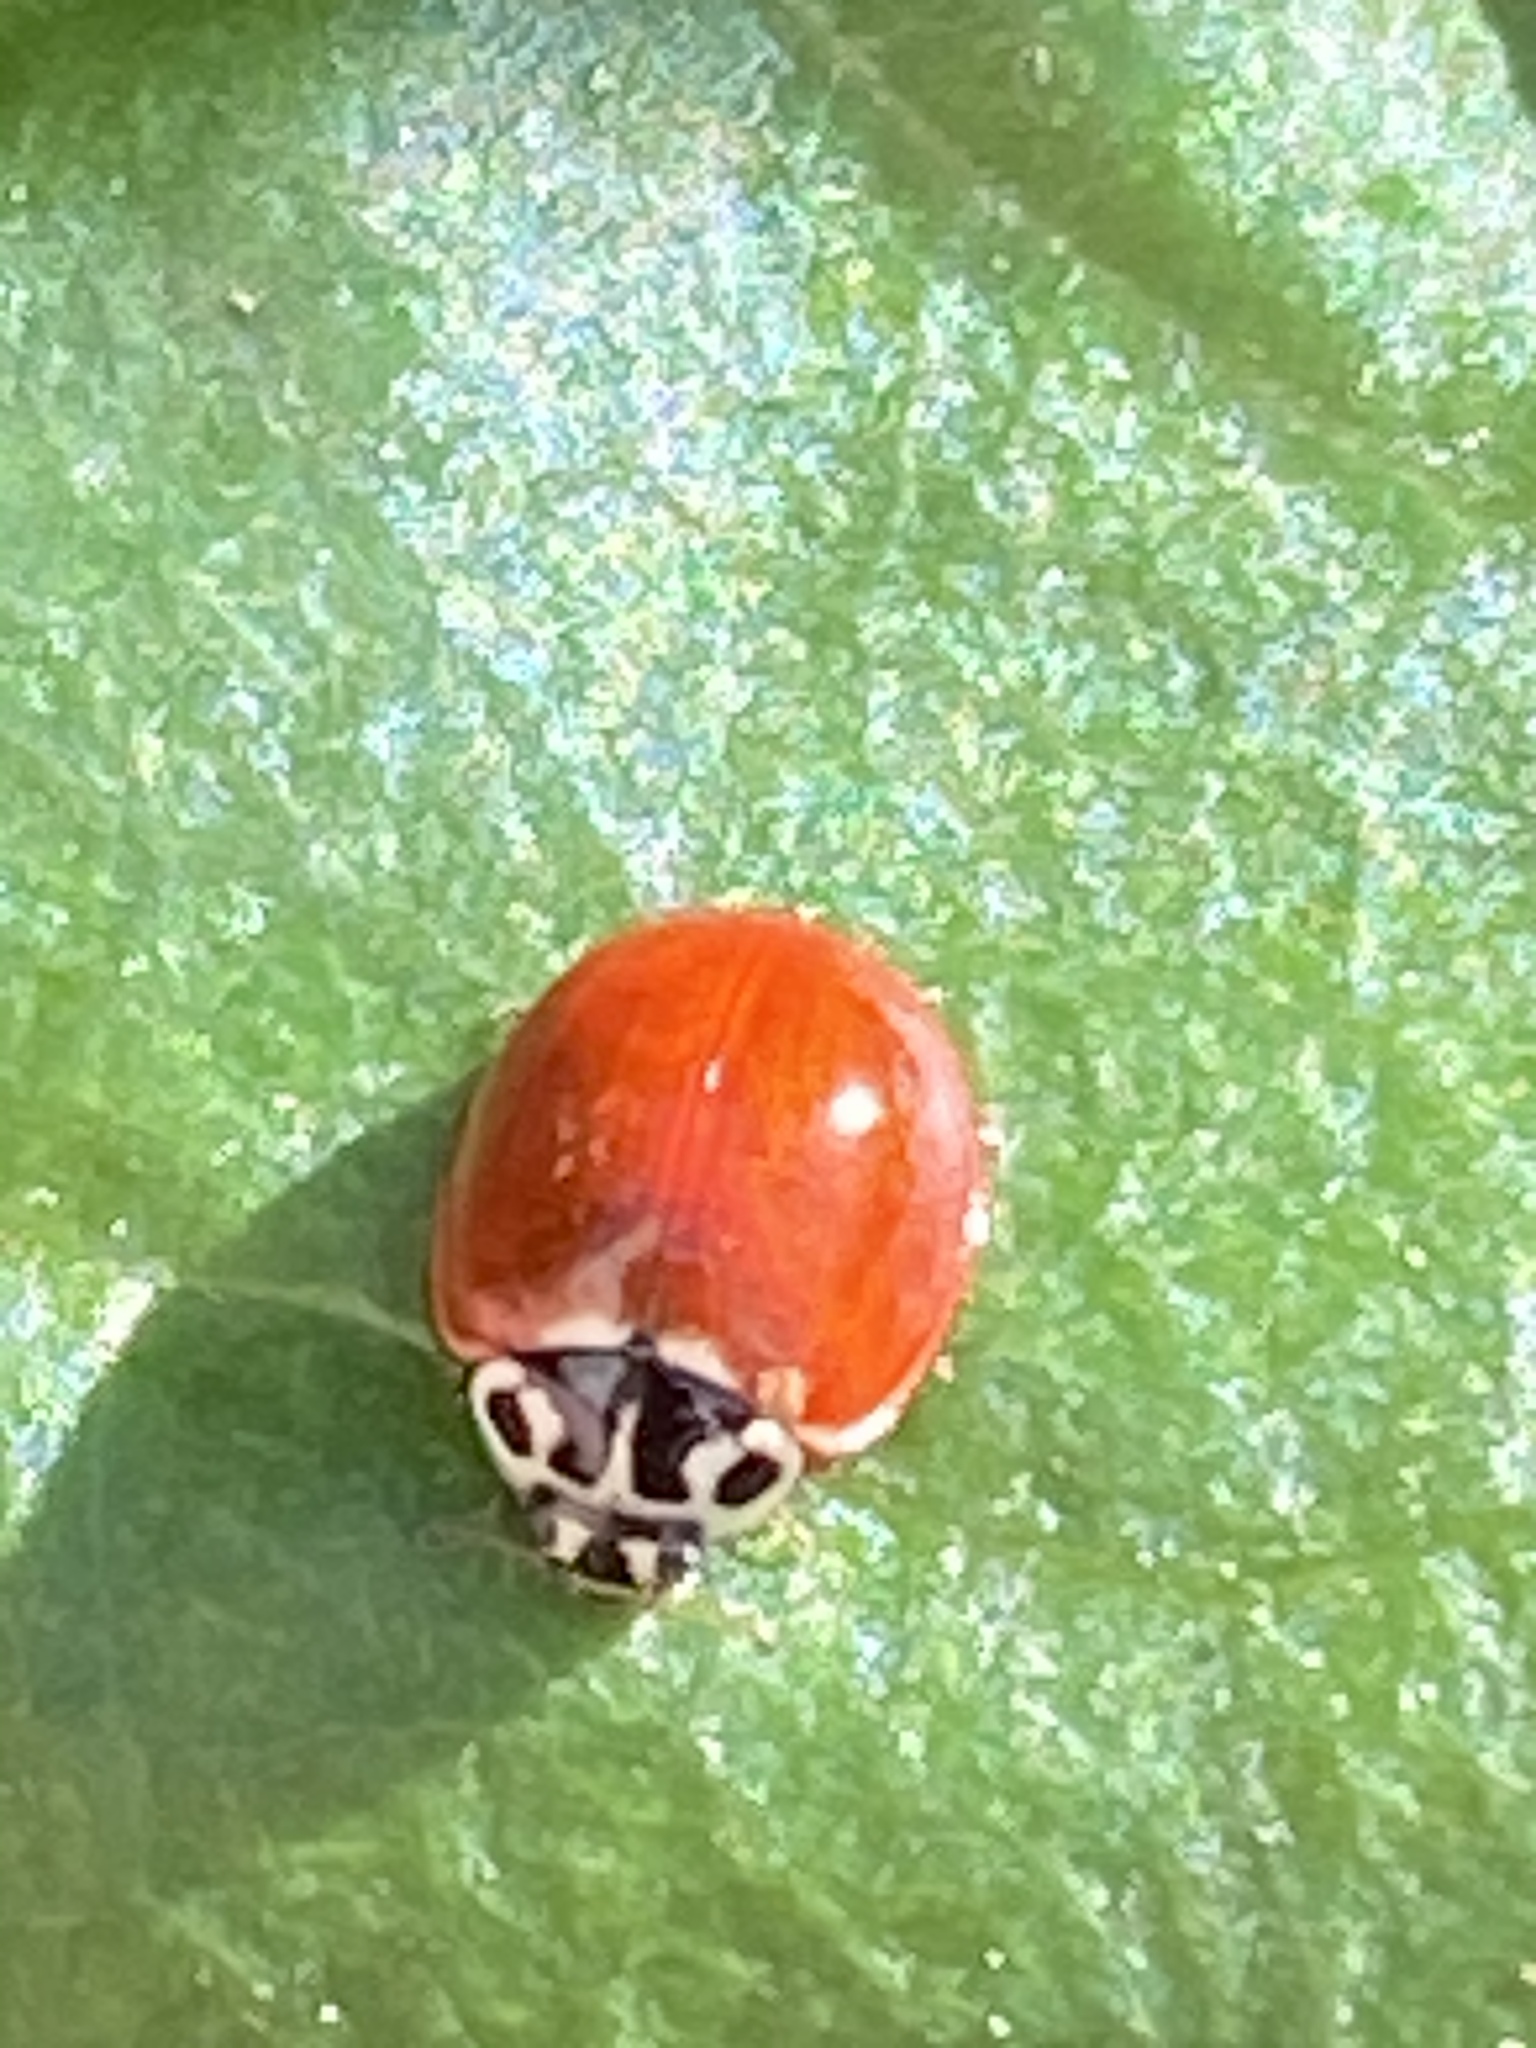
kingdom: Animalia
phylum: Arthropoda
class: Insecta
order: Coleoptera
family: Coccinellidae
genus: Cycloneda
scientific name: Cycloneda polita
